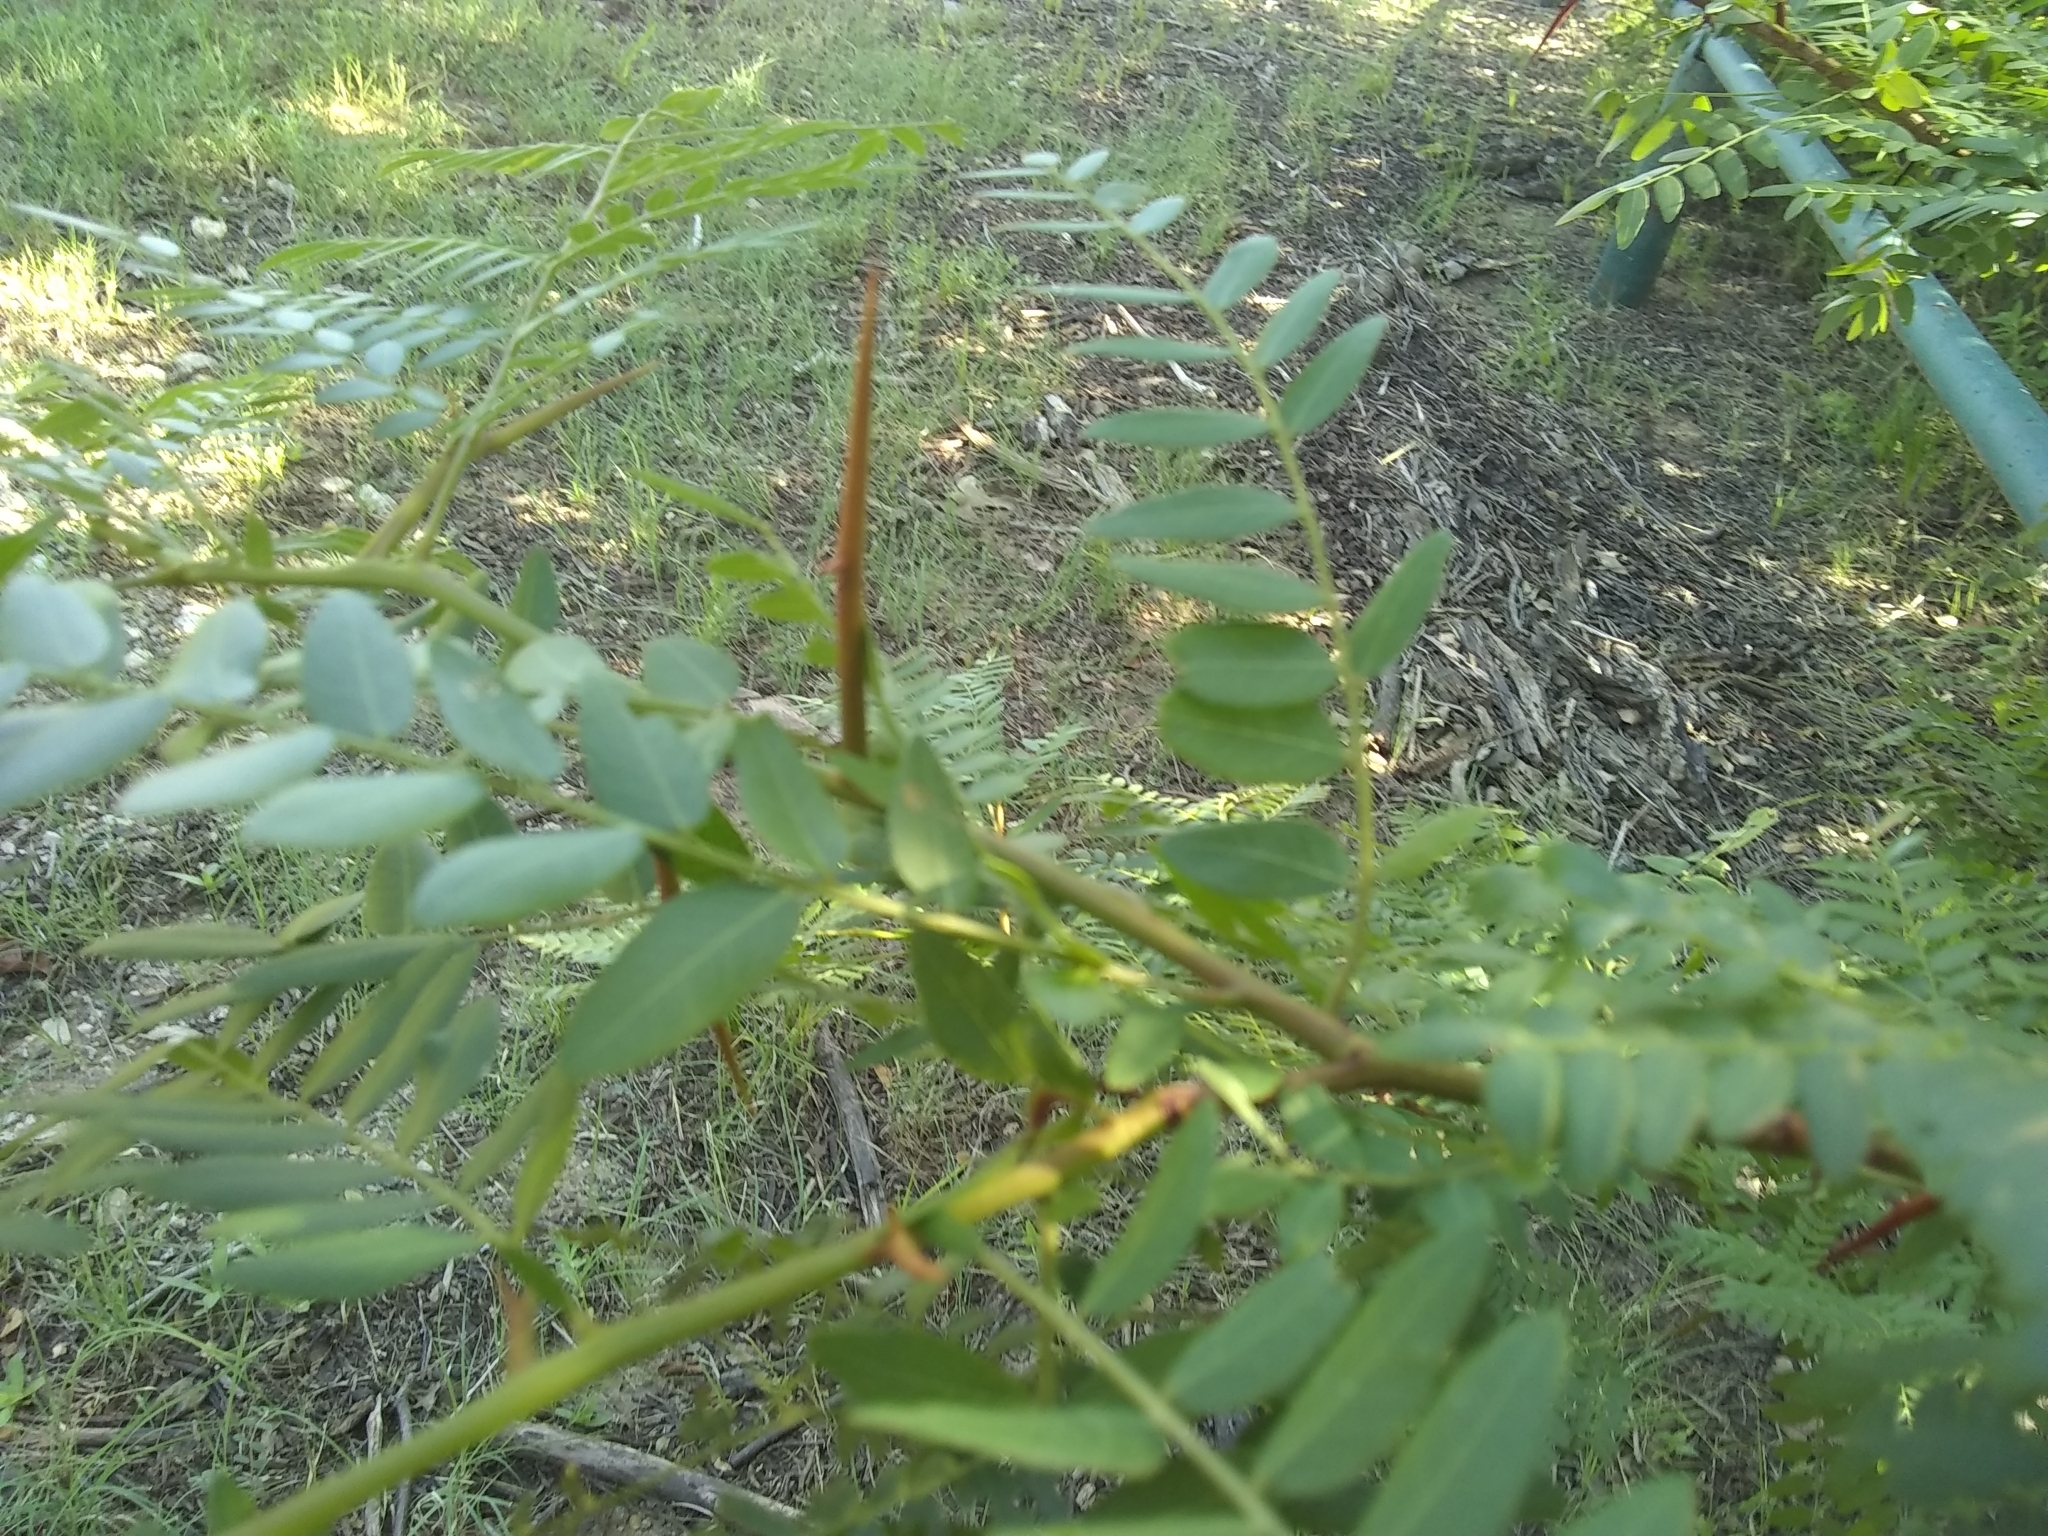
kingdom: Plantae
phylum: Tracheophyta
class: Magnoliopsida
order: Fabales
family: Fabaceae
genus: Gleditsia
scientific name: Gleditsia triacanthos
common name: Common honeylocust
